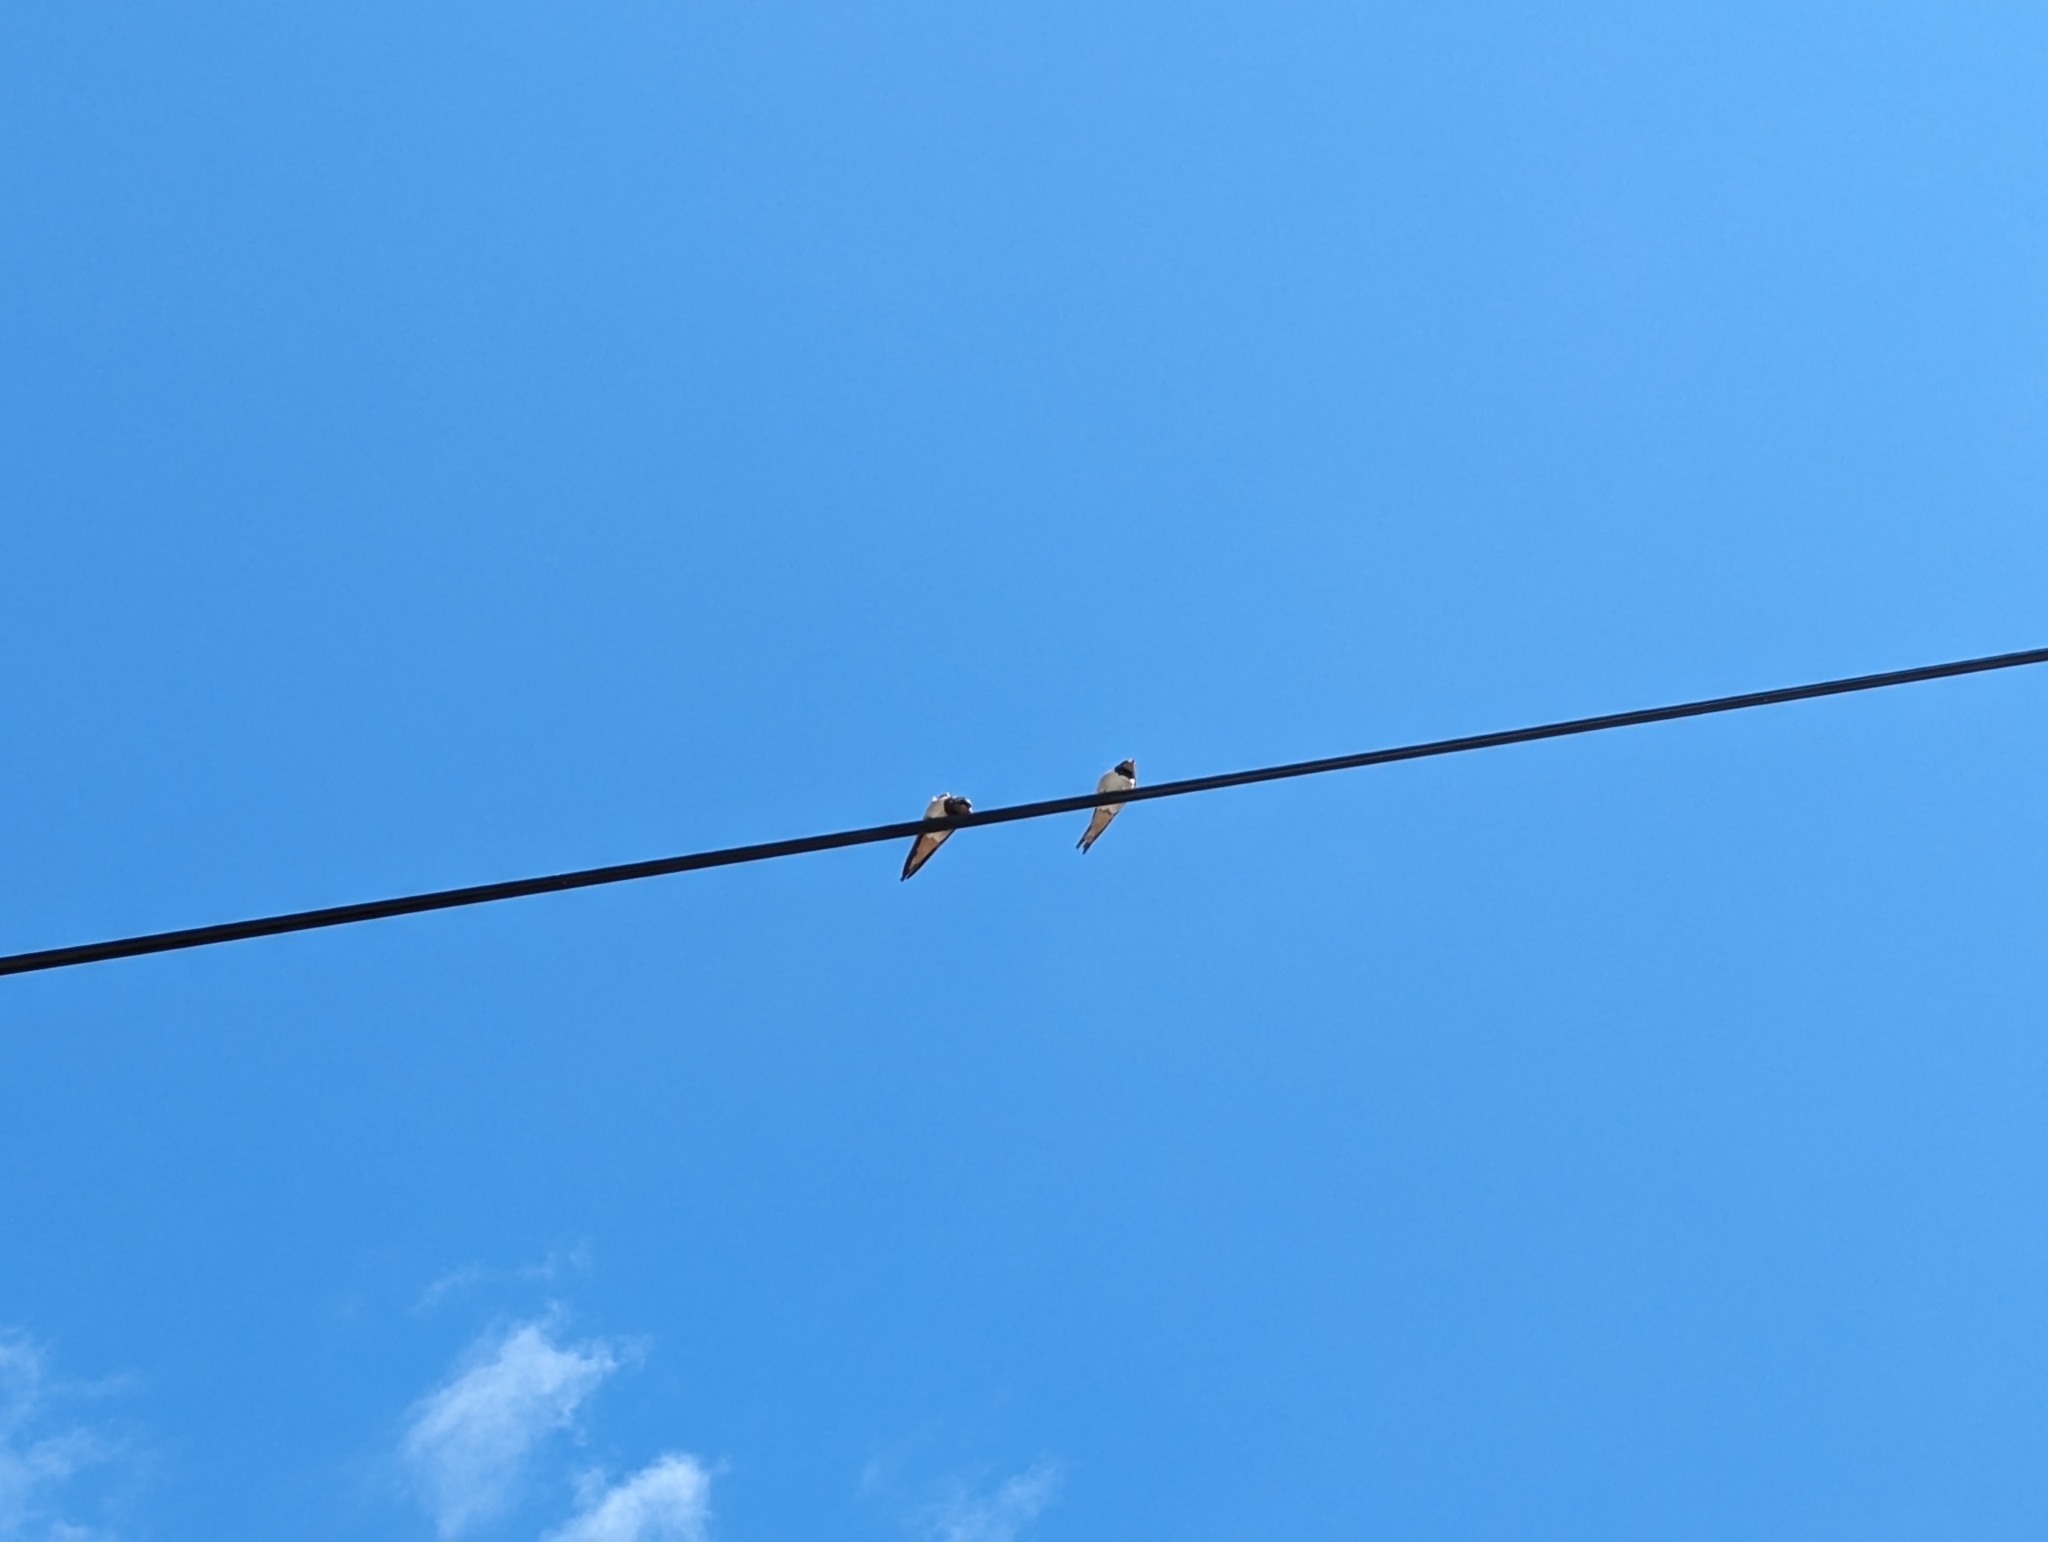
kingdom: Animalia
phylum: Chordata
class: Aves
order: Passeriformes
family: Hirundinidae
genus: Hirundo
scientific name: Hirundo rustica
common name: Barn swallow
